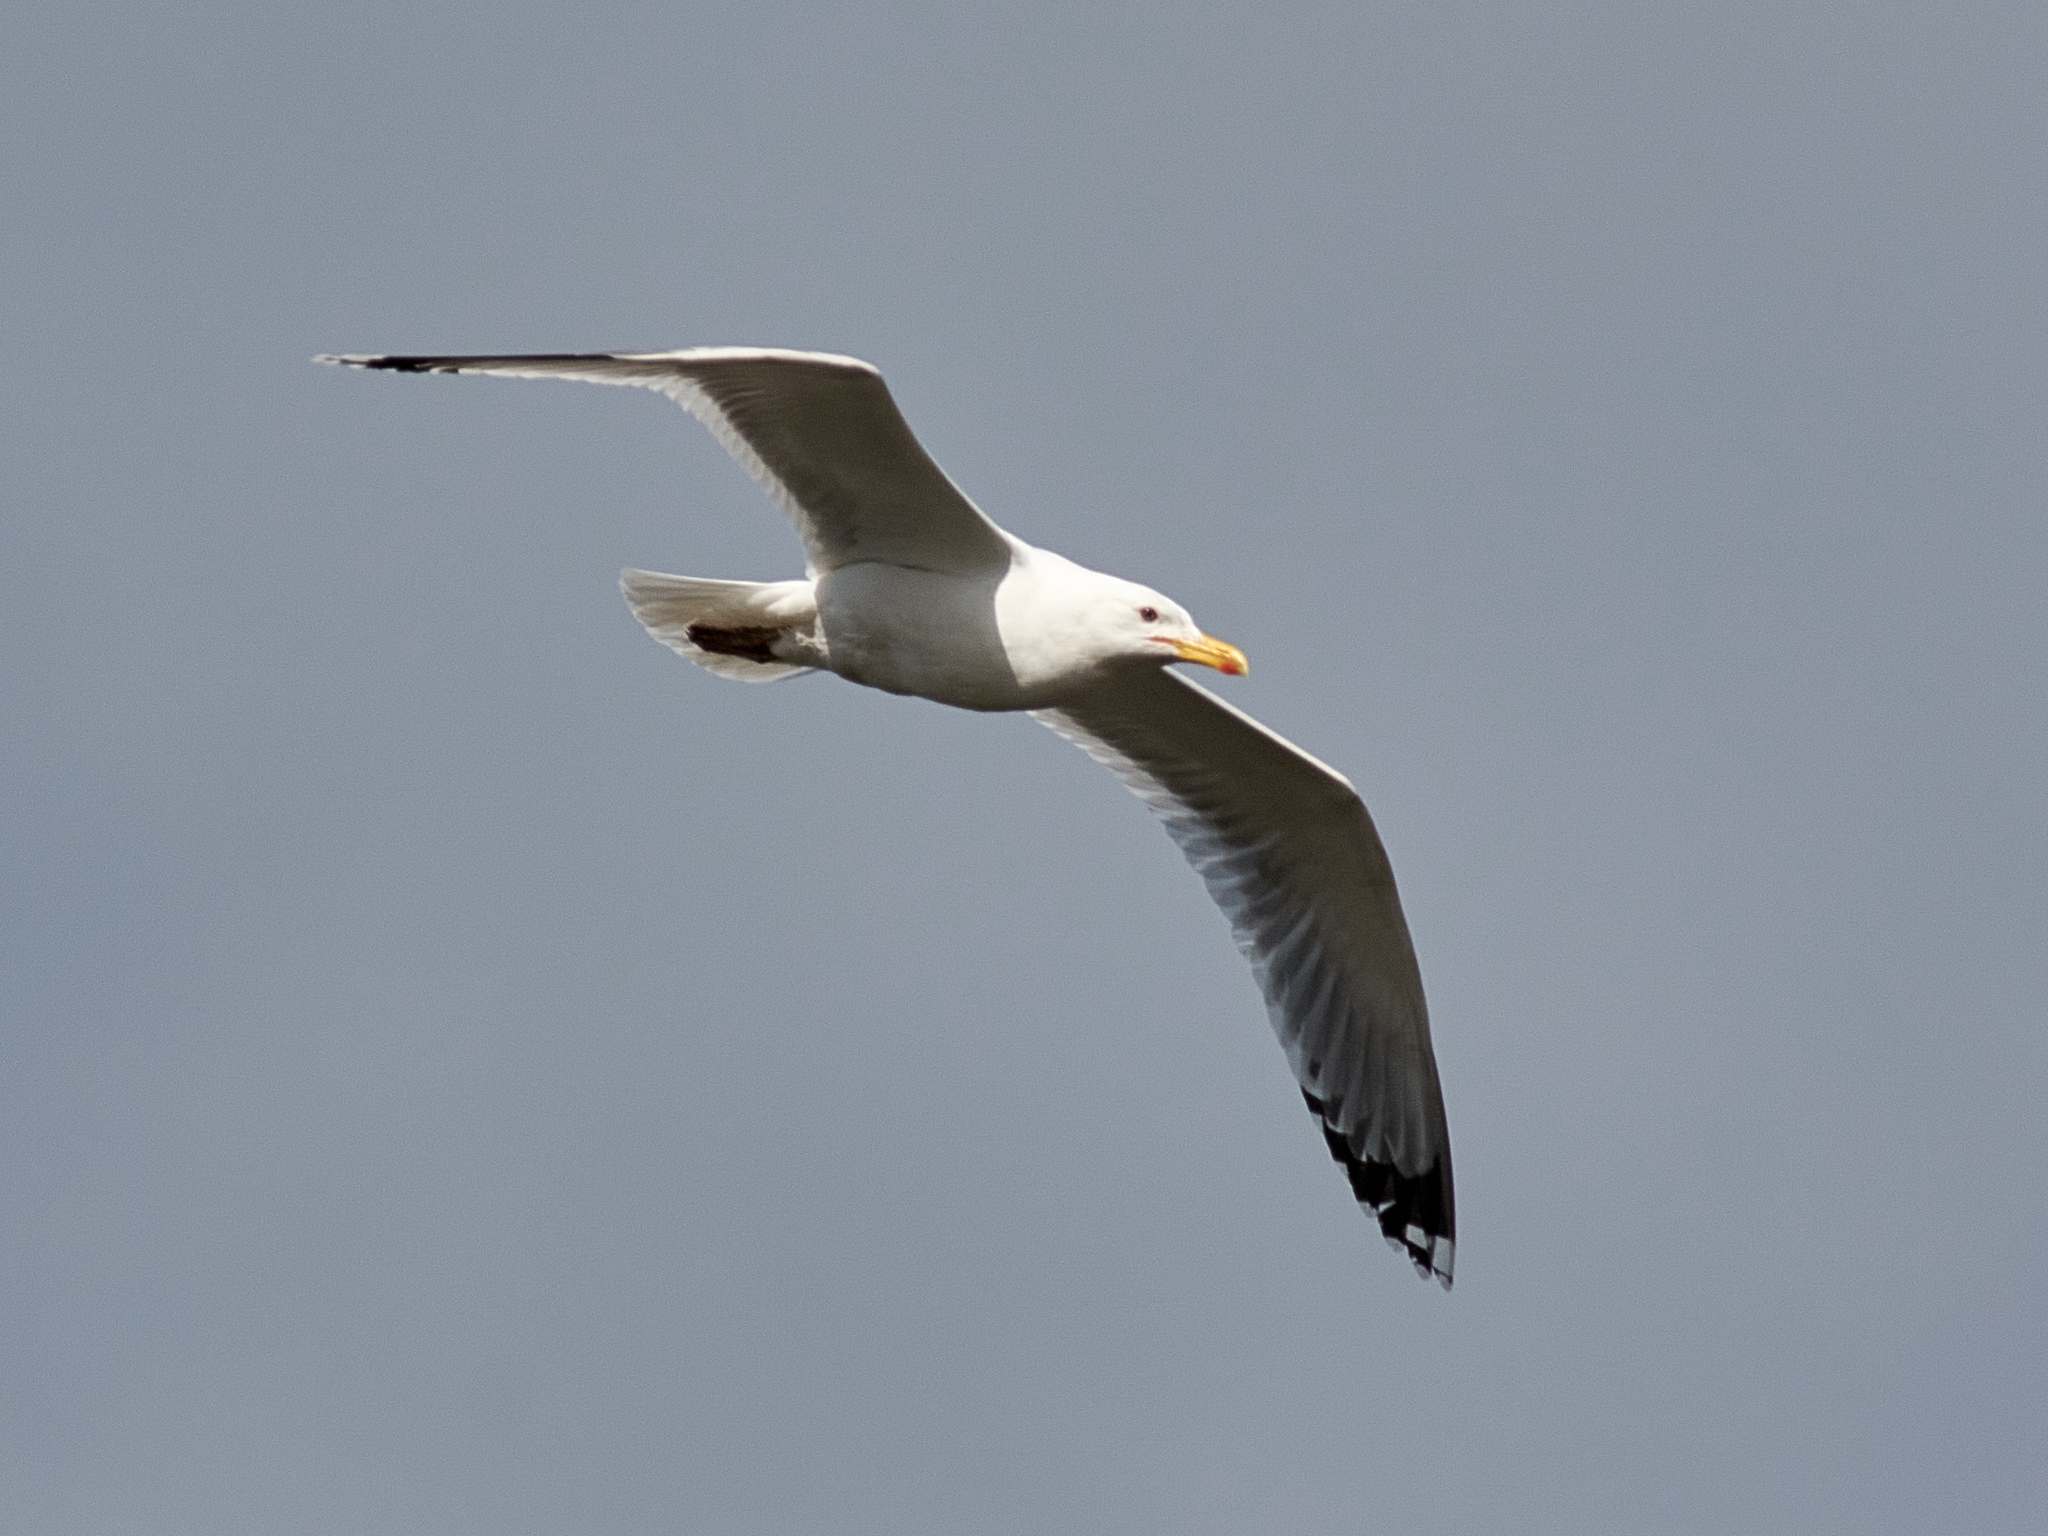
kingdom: Animalia
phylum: Chordata
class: Aves
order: Charadriiformes
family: Laridae
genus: Larus
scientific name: Larus cachinnans
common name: Caspian gull
